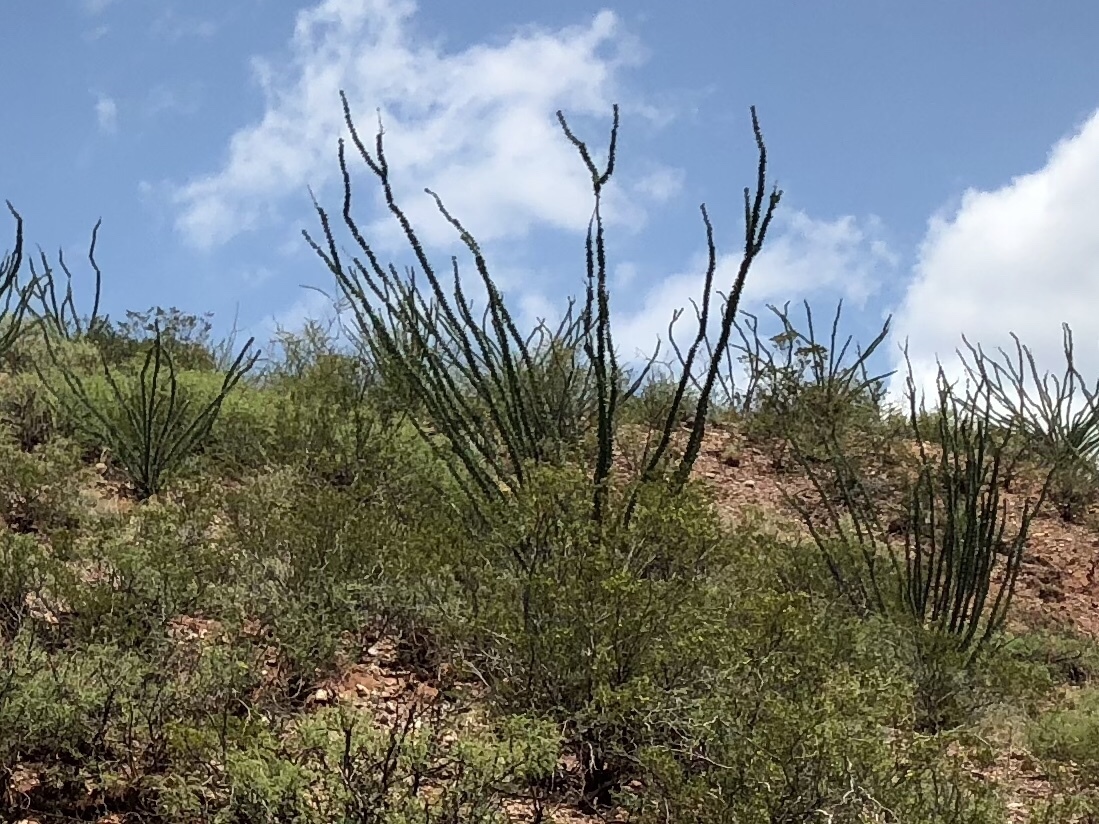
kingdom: Plantae
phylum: Tracheophyta
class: Magnoliopsida
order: Ericales
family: Fouquieriaceae
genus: Fouquieria
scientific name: Fouquieria splendens
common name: Vine-cactus
